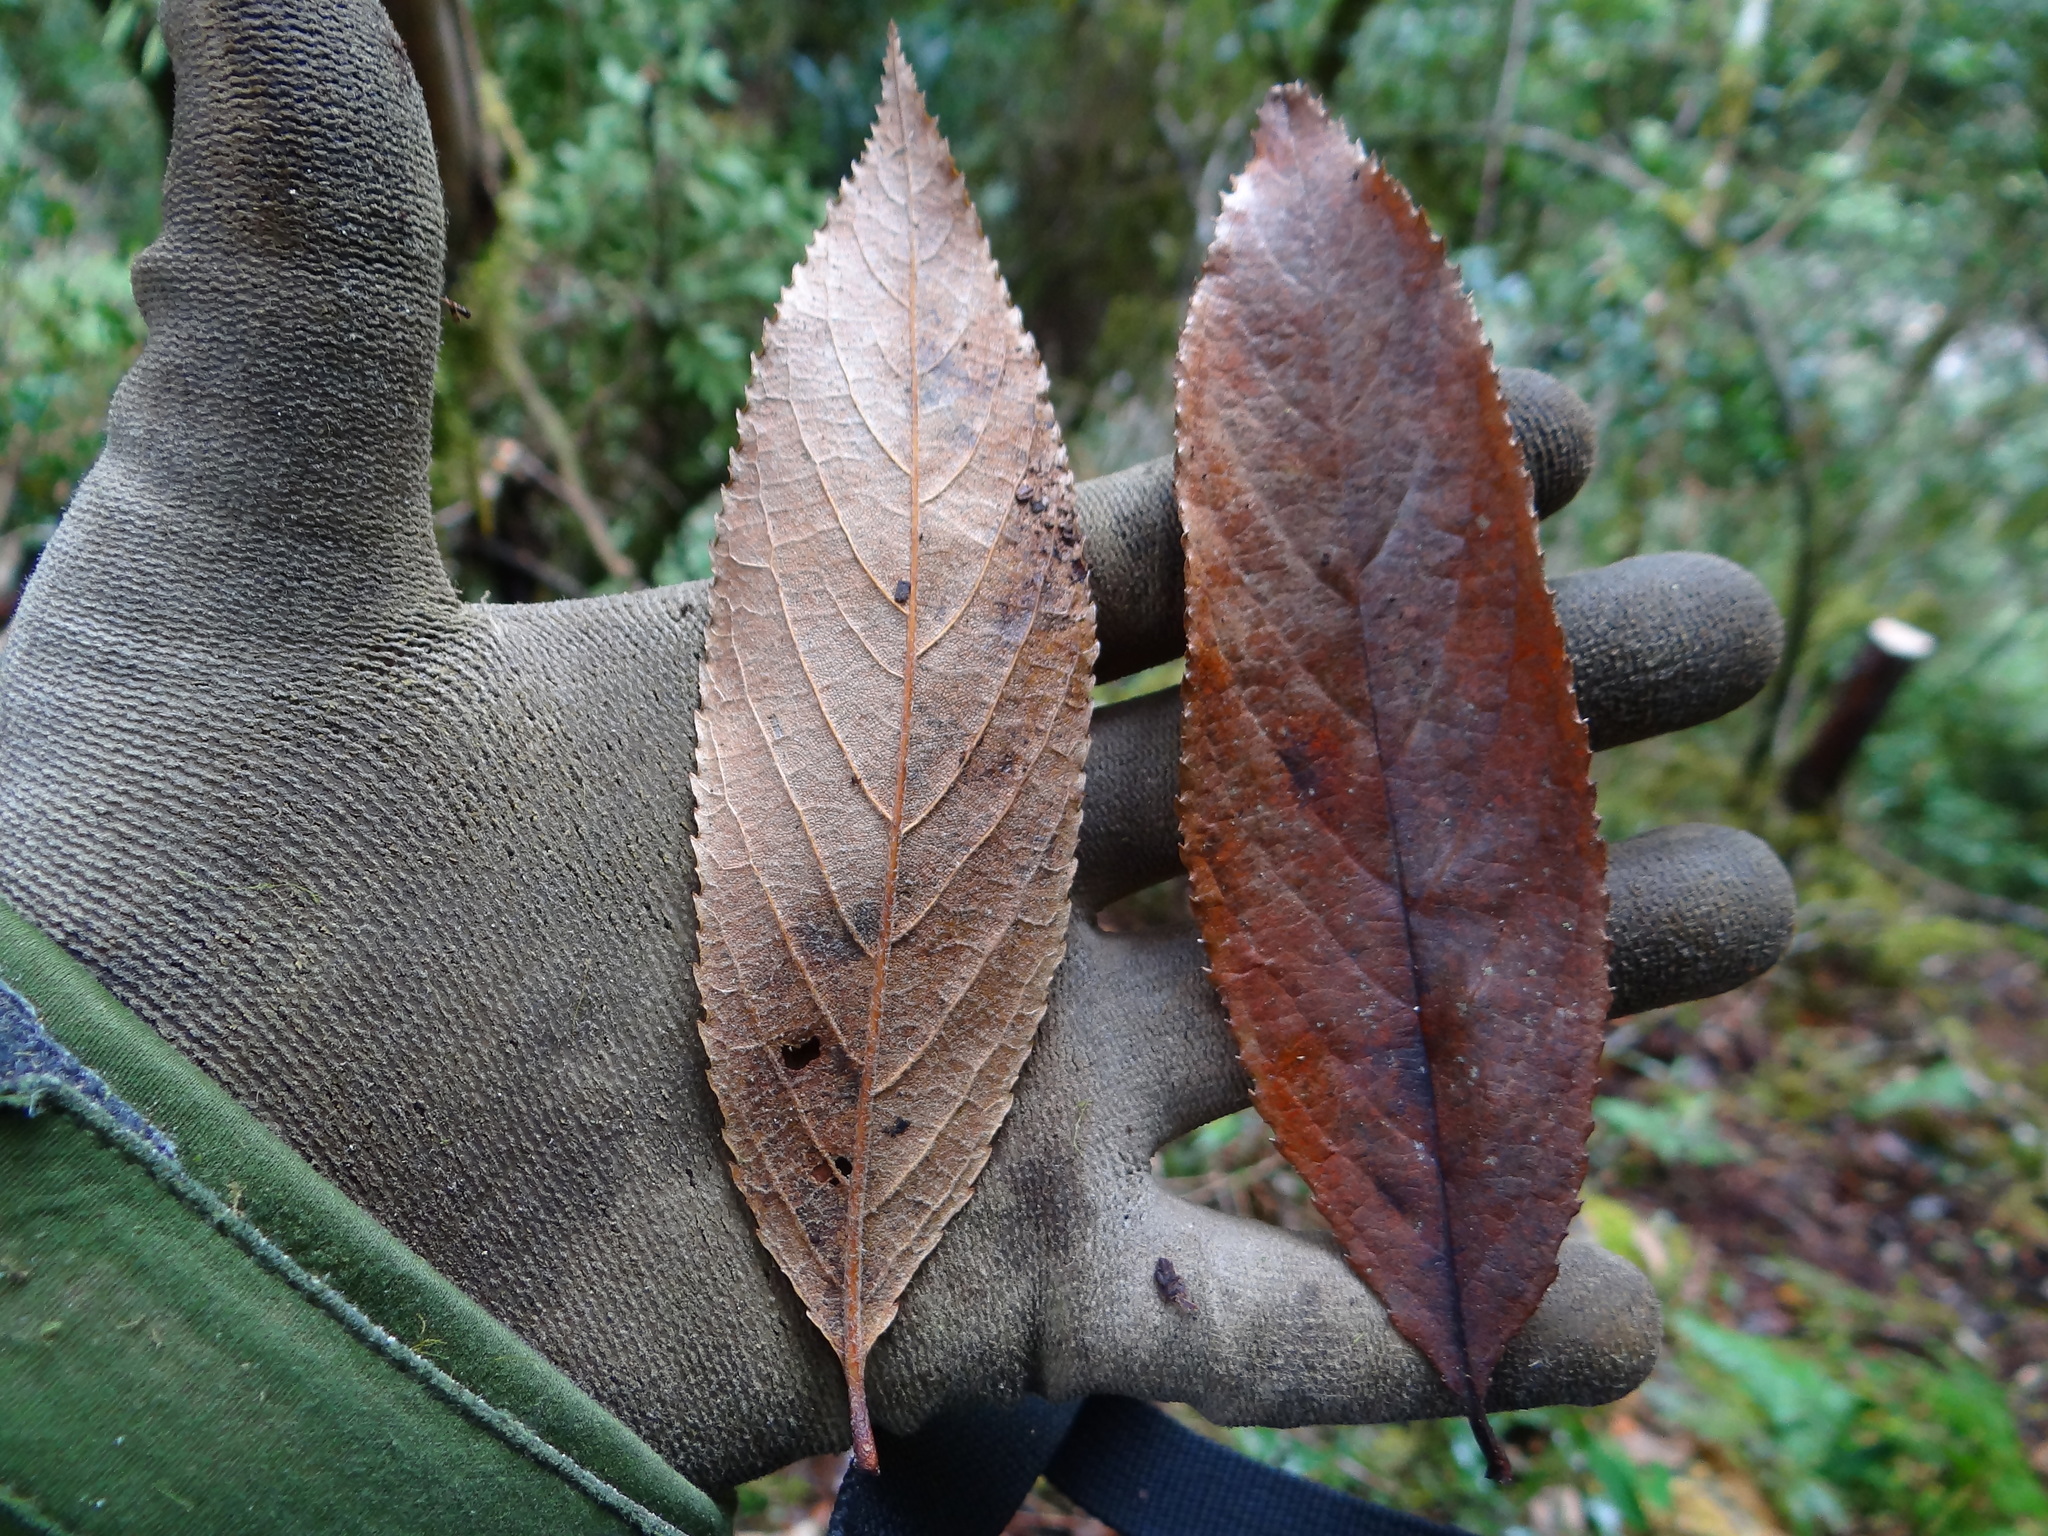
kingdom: Plantae
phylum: Tracheophyta
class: Magnoliopsida
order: Rosales
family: Rosaceae
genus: Pourthiaea
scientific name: Pourthiaea beauverdiana
